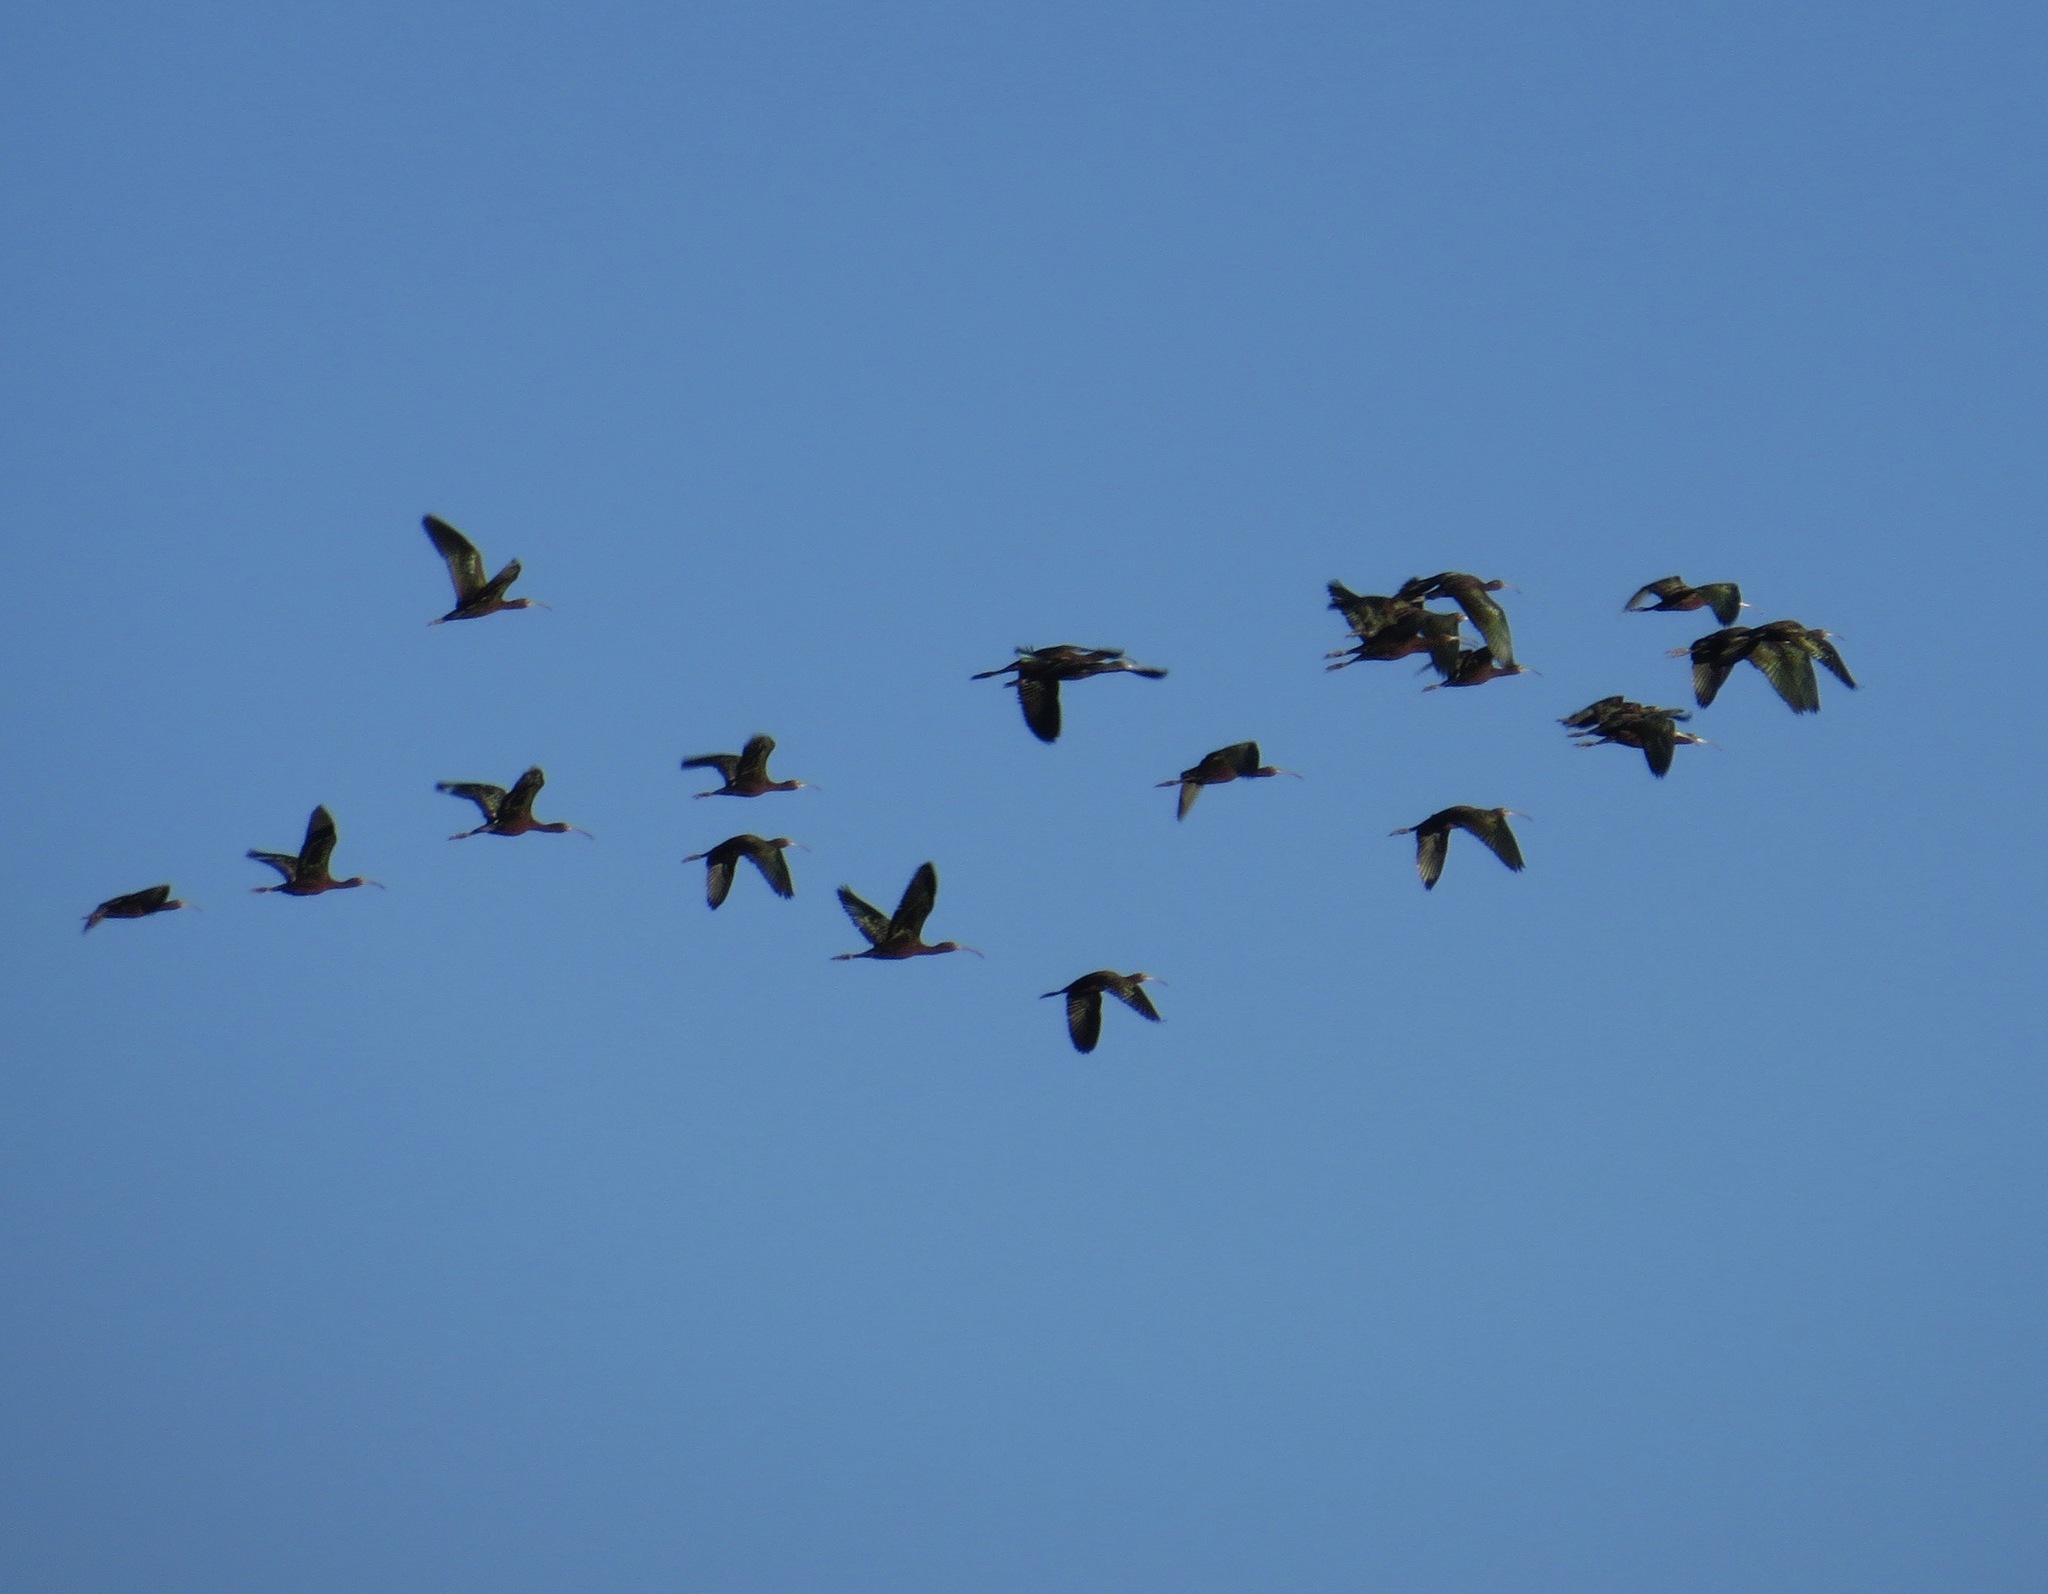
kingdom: Animalia
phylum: Chordata
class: Aves
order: Pelecaniformes
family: Threskiornithidae
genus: Plegadis
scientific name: Plegadis chihi
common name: White-faced ibis
